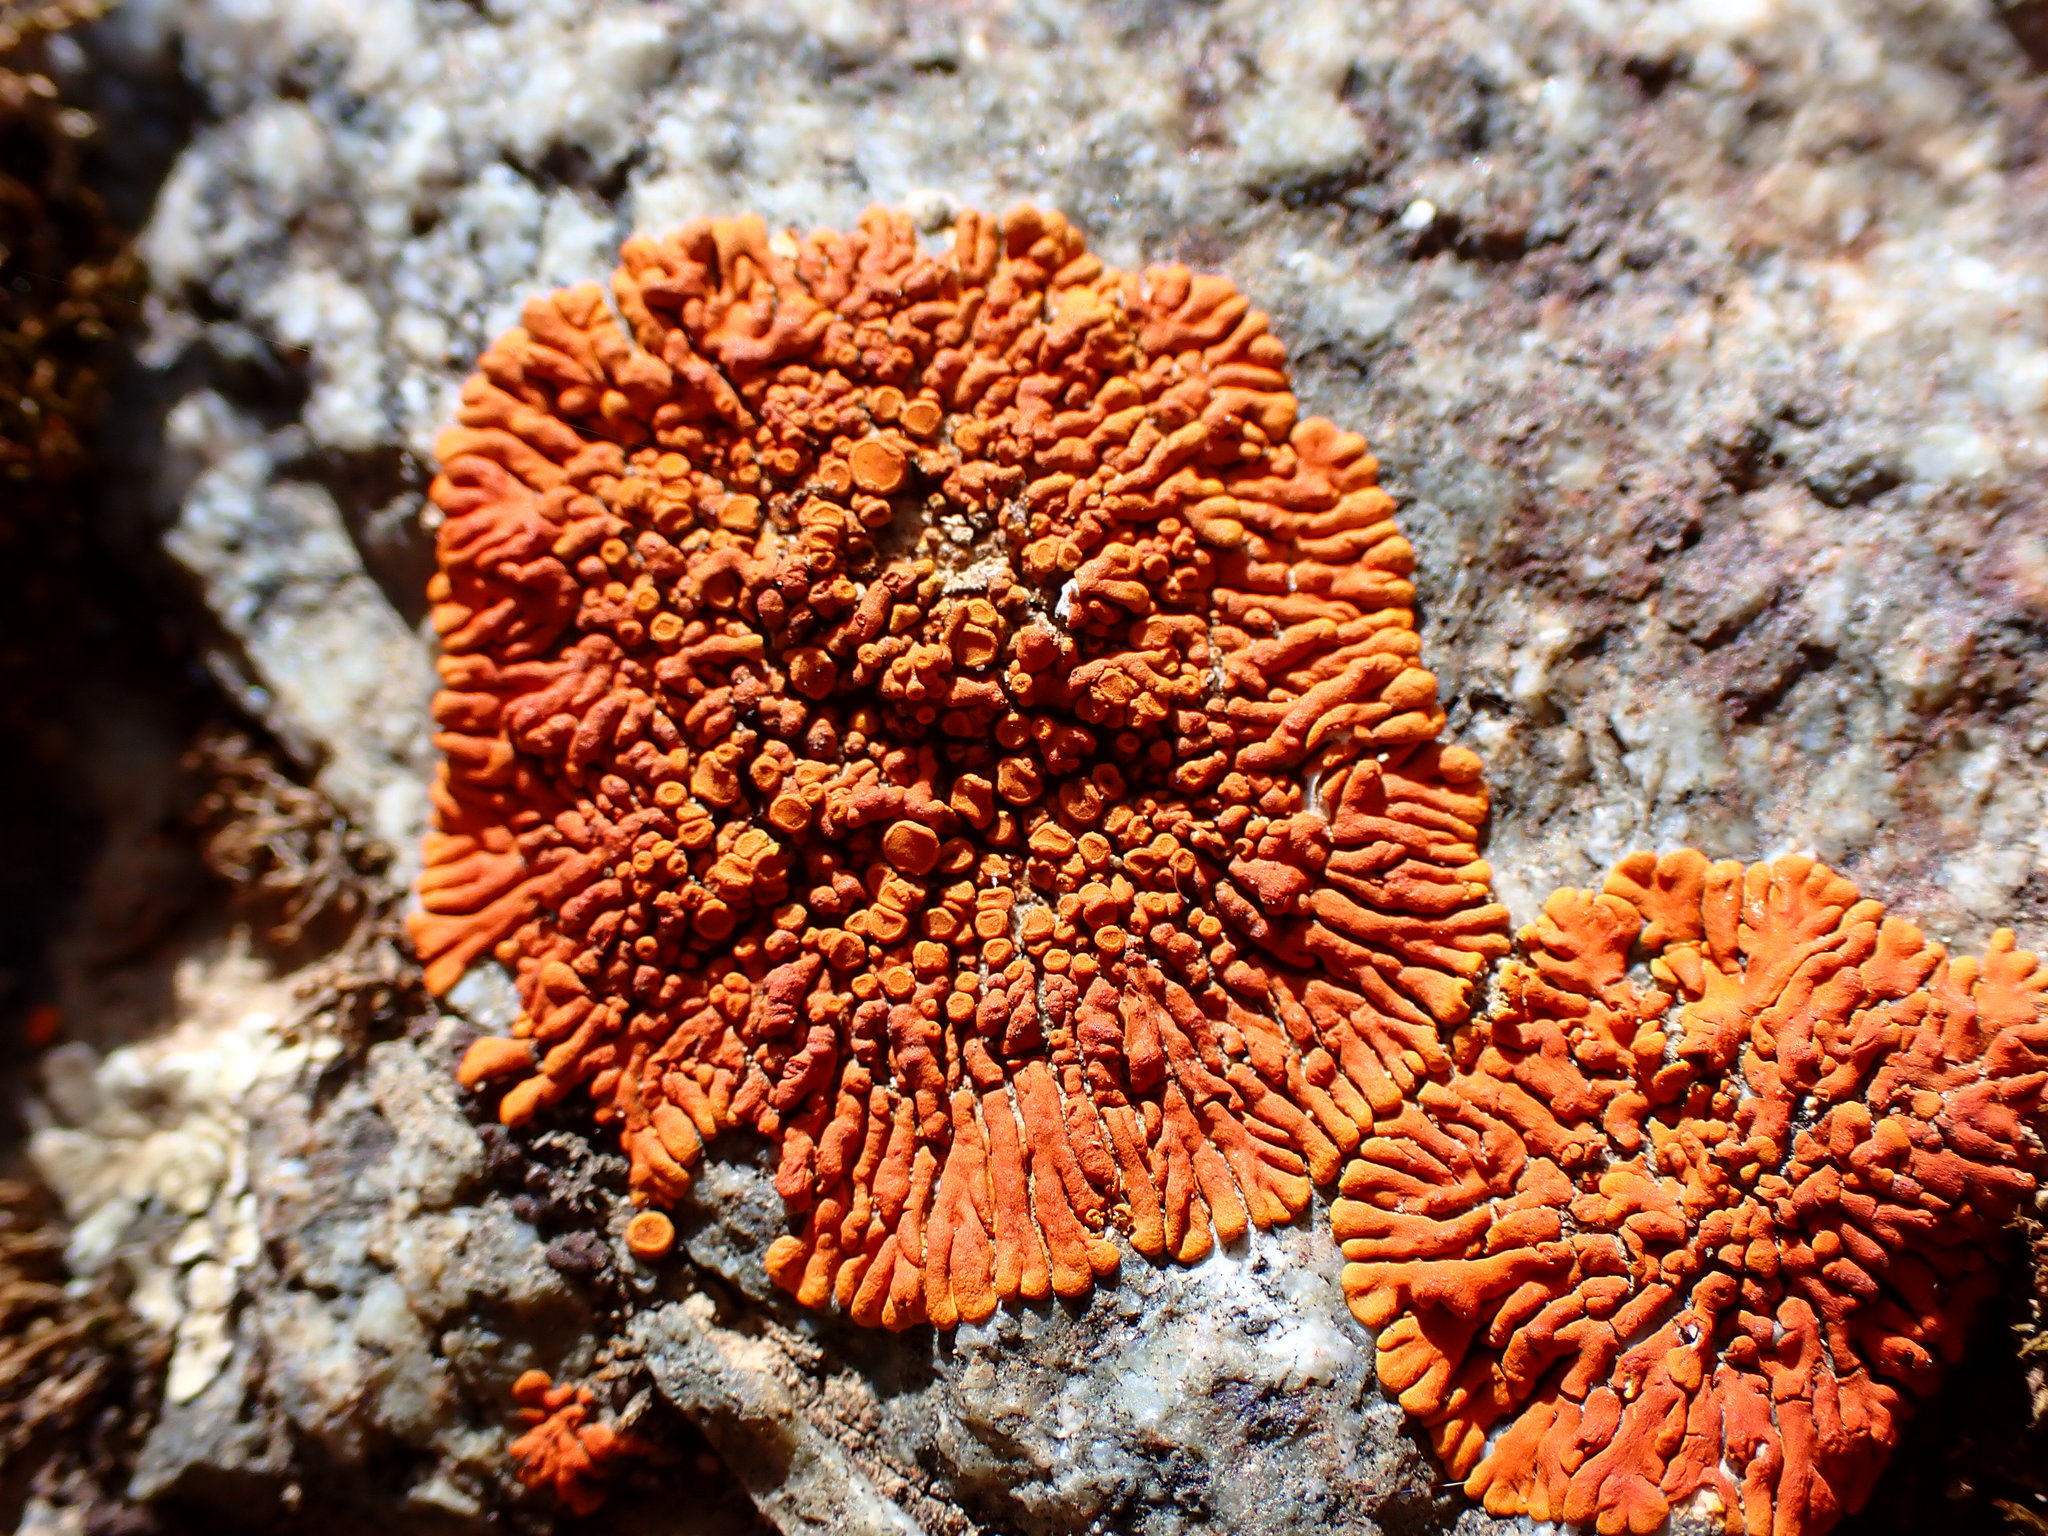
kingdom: Fungi
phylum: Ascomycota
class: Lecanoromycetes
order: Teloschistales
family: Teloschistaceae
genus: Igneoplaca
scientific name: Igneoplaca ignea
